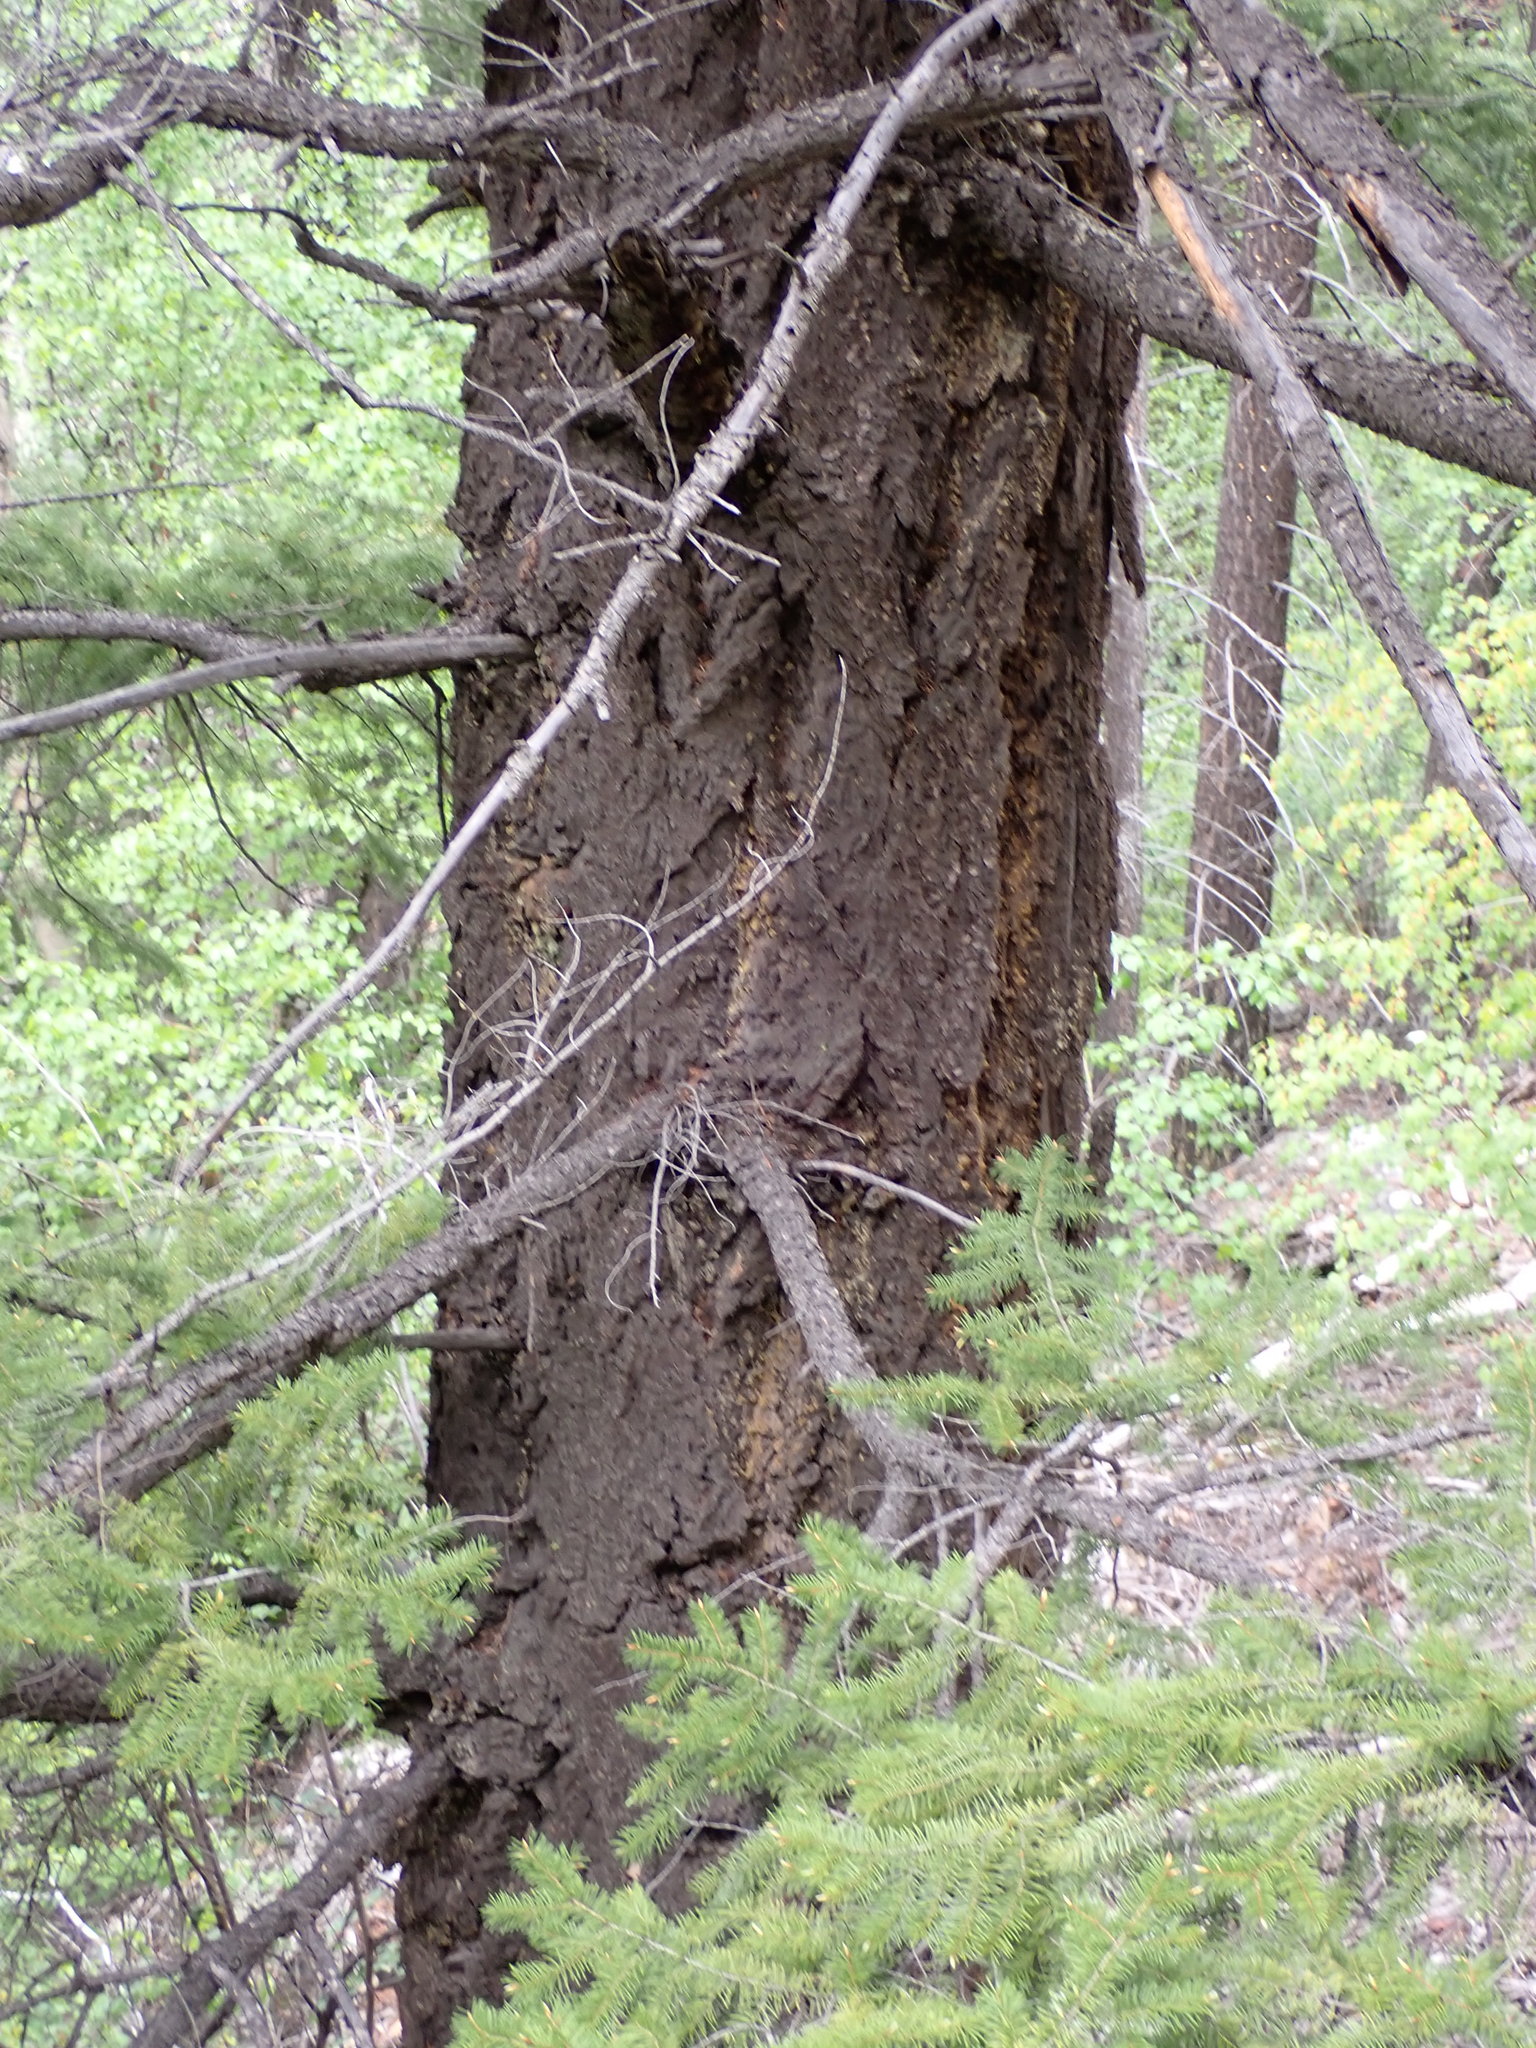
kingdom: Plantae
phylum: Tracheophyta
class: Pinopsida
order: Pinales
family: Pinaceae
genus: Pseudotsuga
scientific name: Pseudotsuga menziesii
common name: Douglas fir
